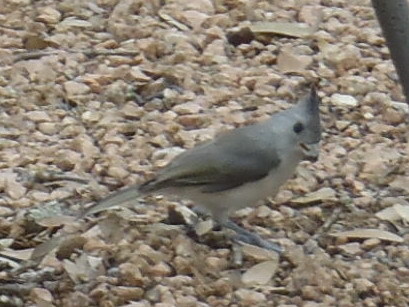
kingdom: Animalia
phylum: Chordata
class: Aves
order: Passeriformes
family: Paridae
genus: Baeolophus
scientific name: Baeolophus atricristatus
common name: Black-crested titmouse
